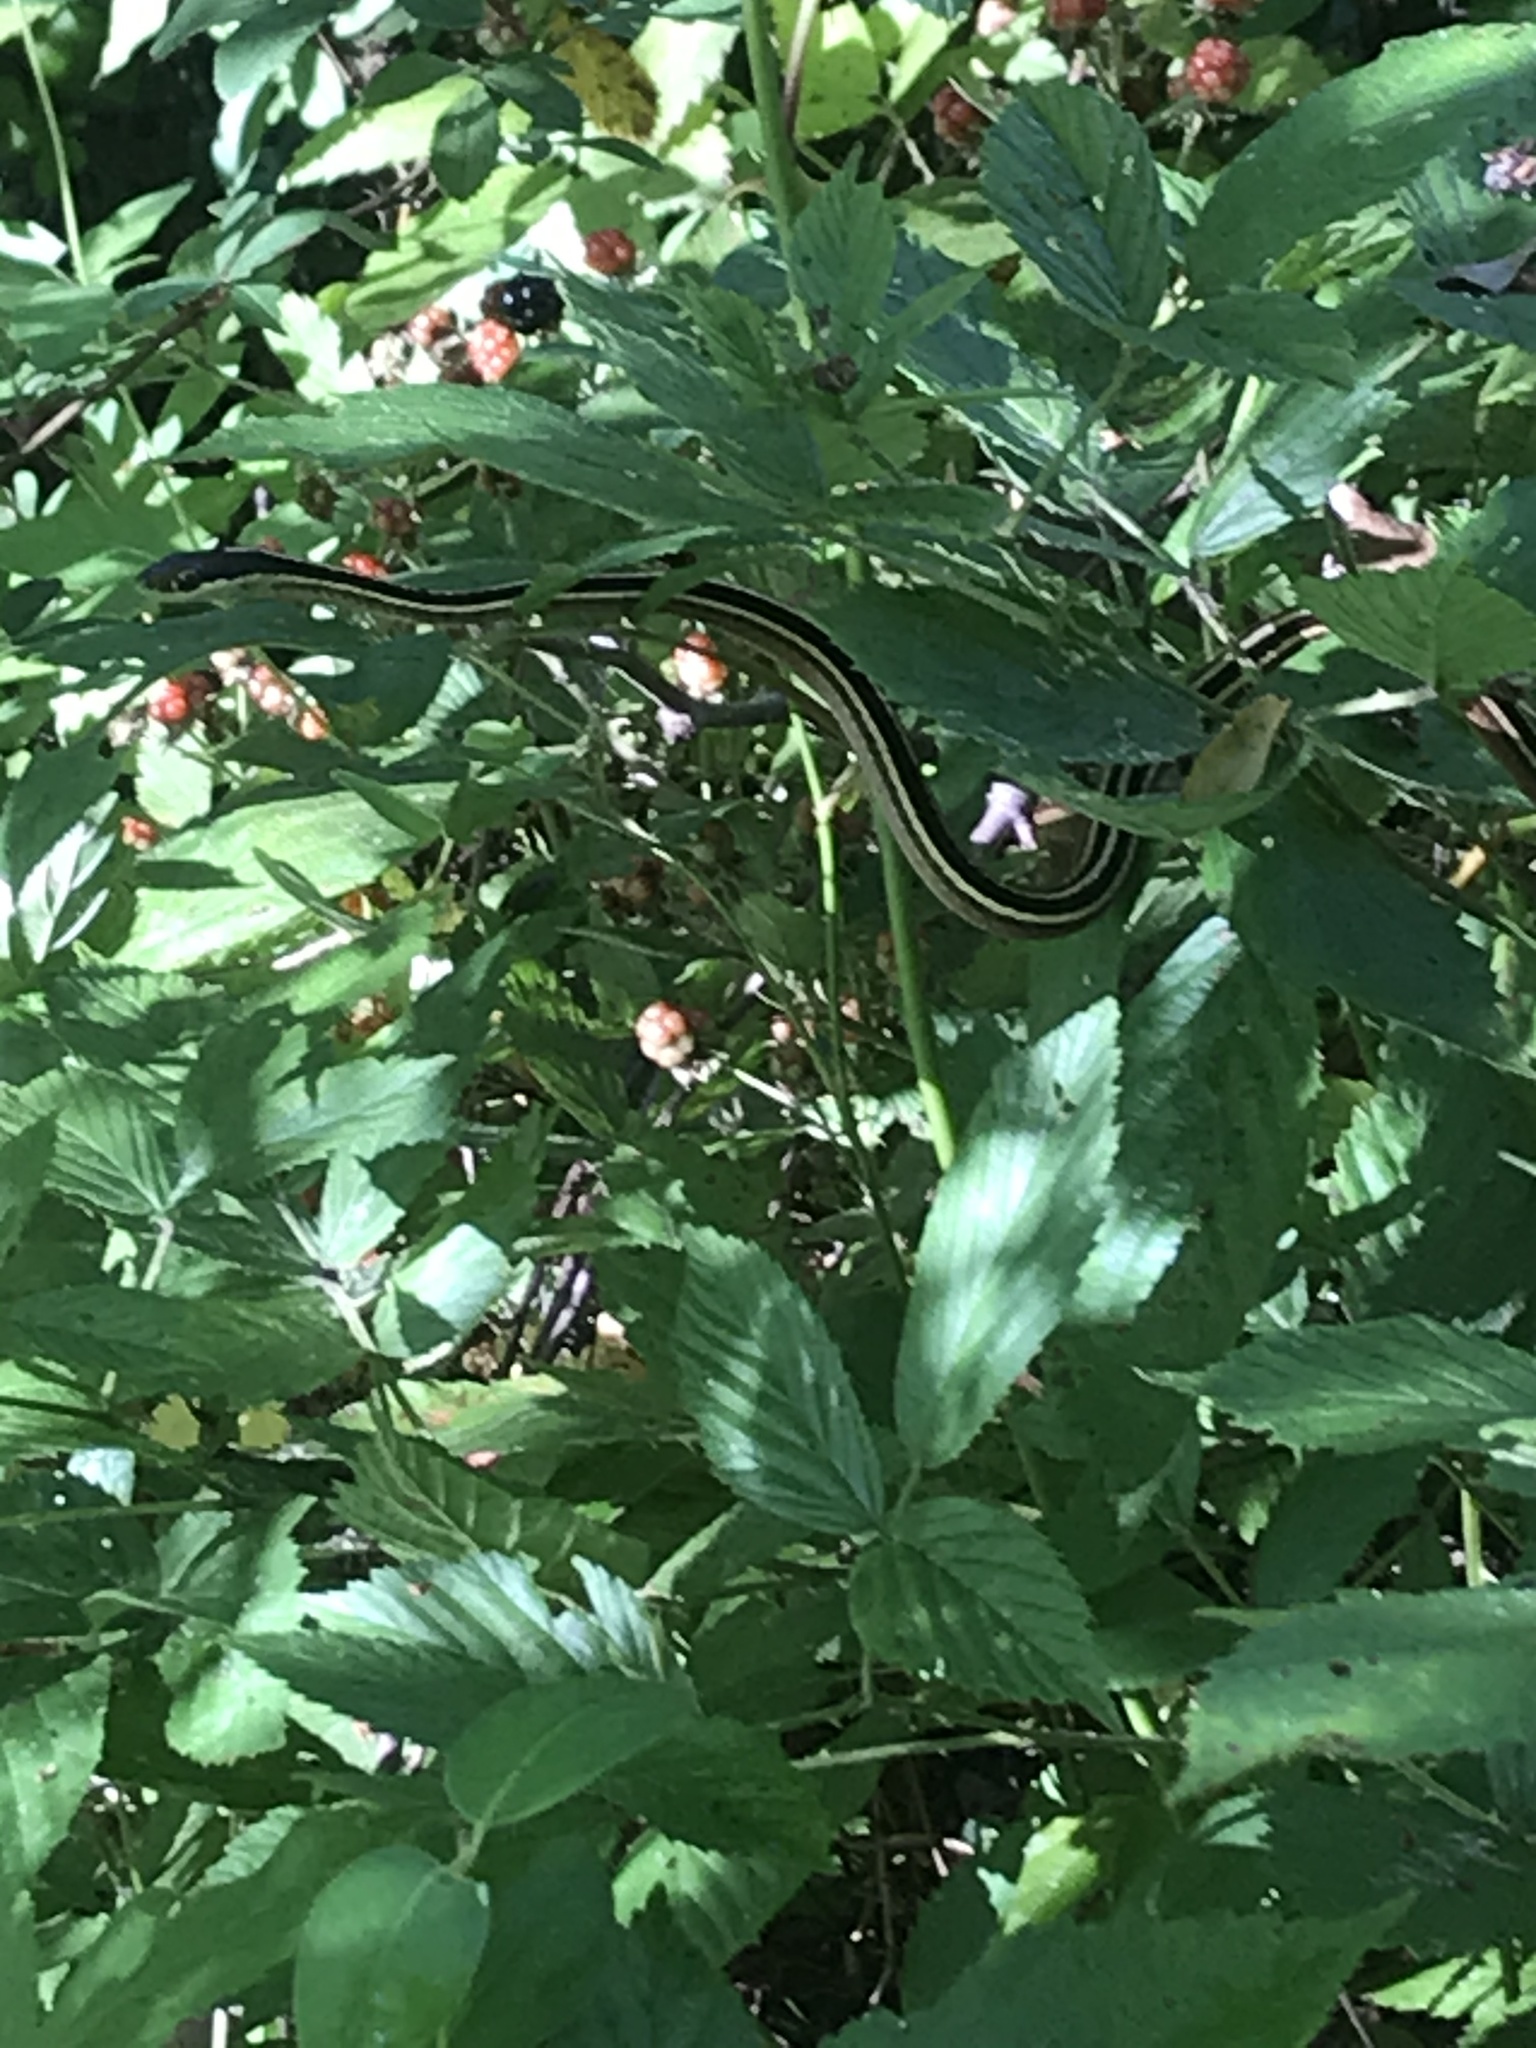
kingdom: Animalia
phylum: Chordata
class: Squamata
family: Colubridae
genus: Thamnophis
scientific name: Thamnophis saurita
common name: Eastern ribbonsnake
